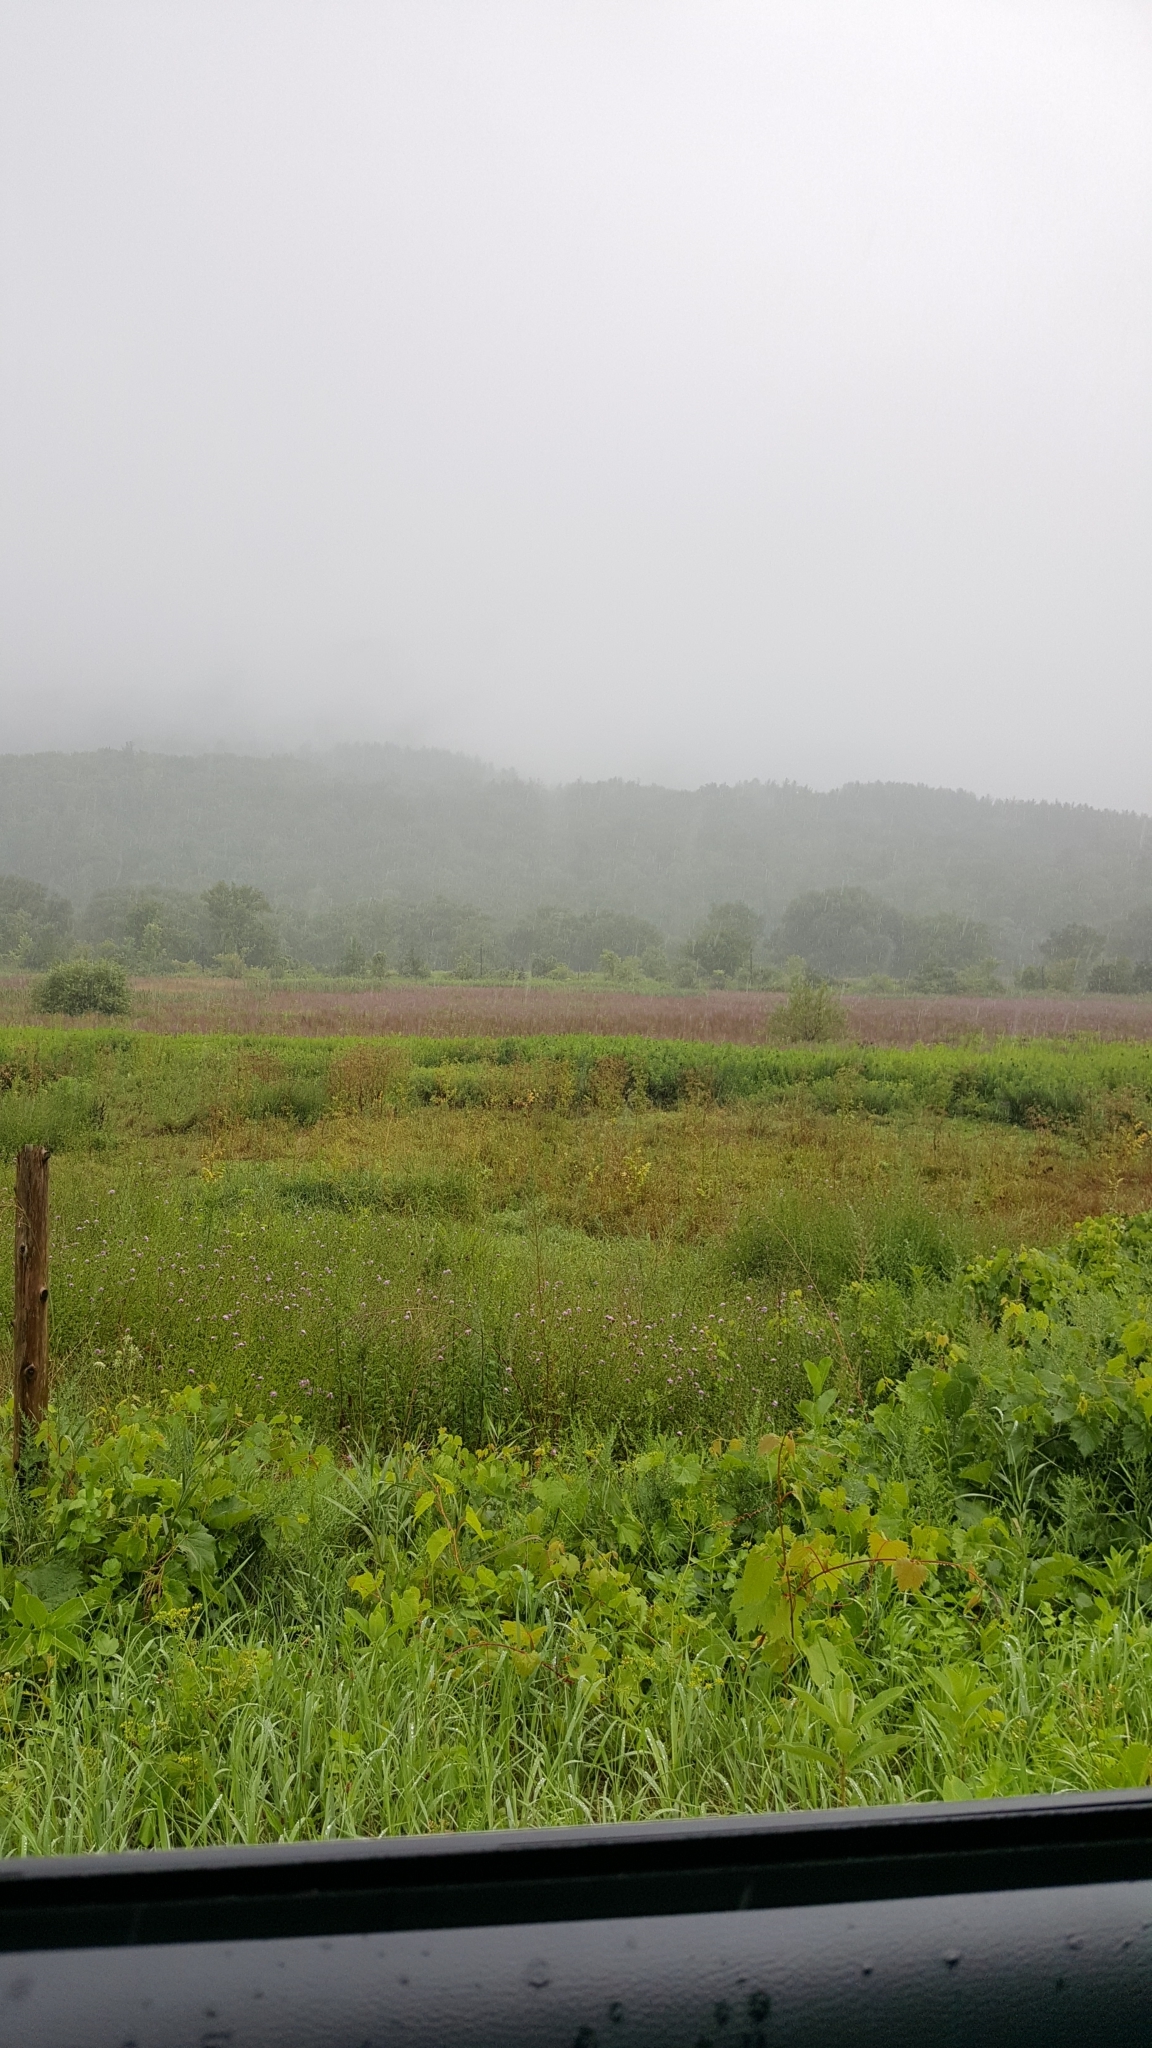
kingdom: Plantae
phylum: Tracheophyta
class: Magnoliopsida
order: Apiales
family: Apiaceae
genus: Pastinaca
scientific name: Pastinaca sativa
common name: Wild parsnip
